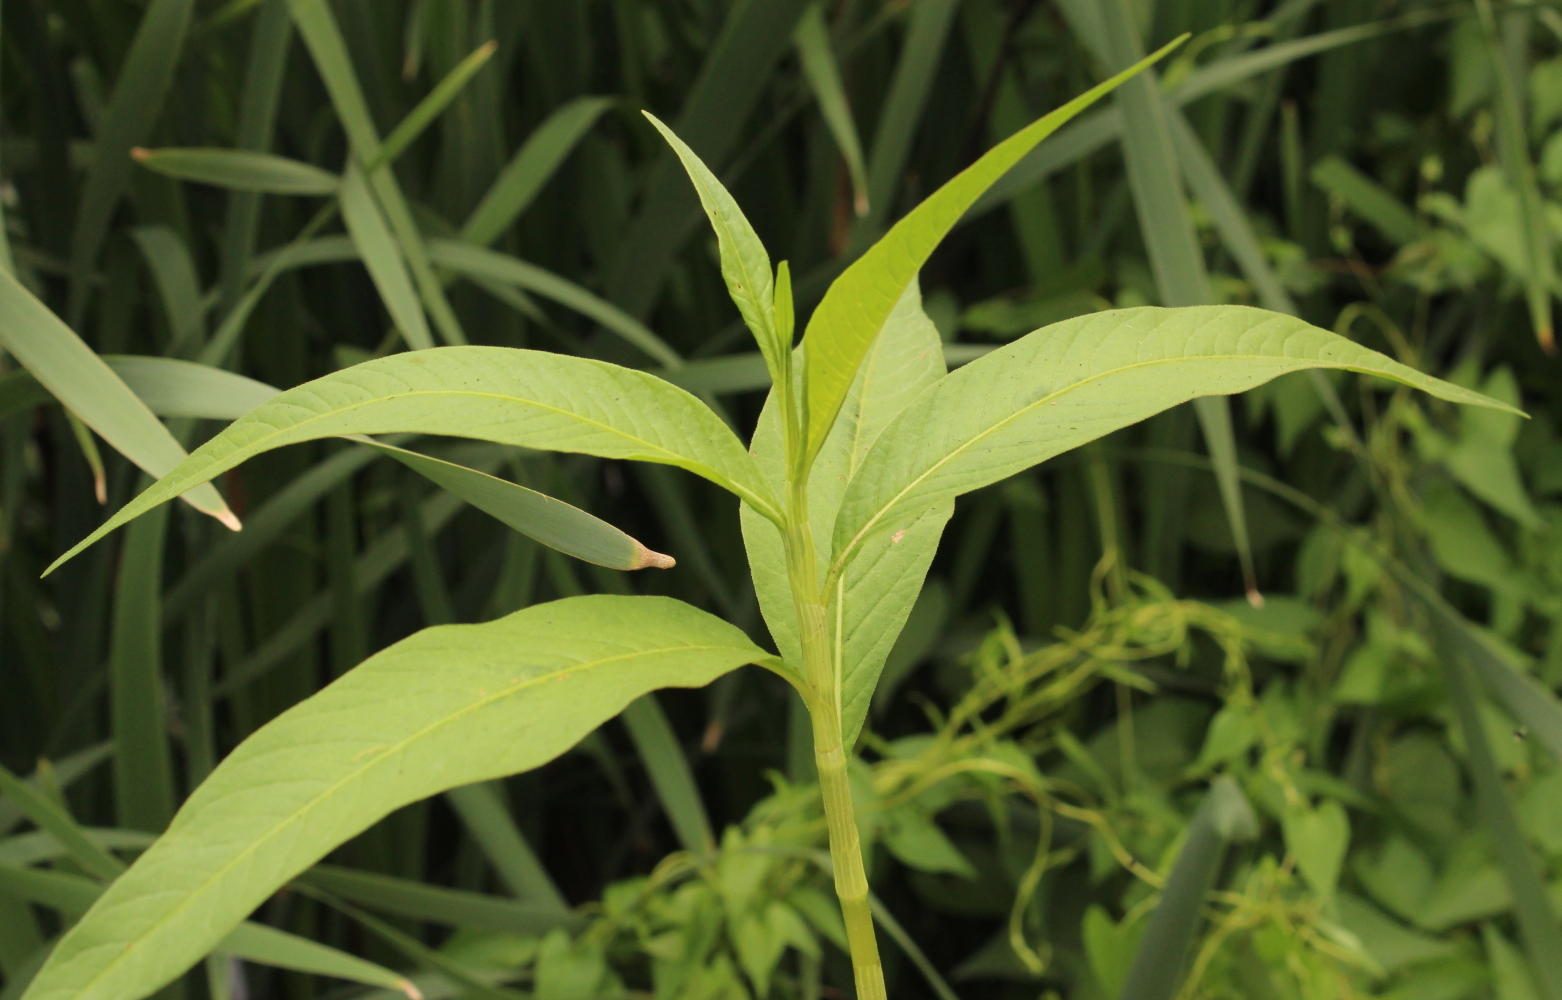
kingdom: Plantae
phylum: Tracheophyta
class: Magnoliopsida
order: Caryophyllales
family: Polygonaceae
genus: Persicaria
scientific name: Persicaria lapathifolia
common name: Curlytop knotweed
